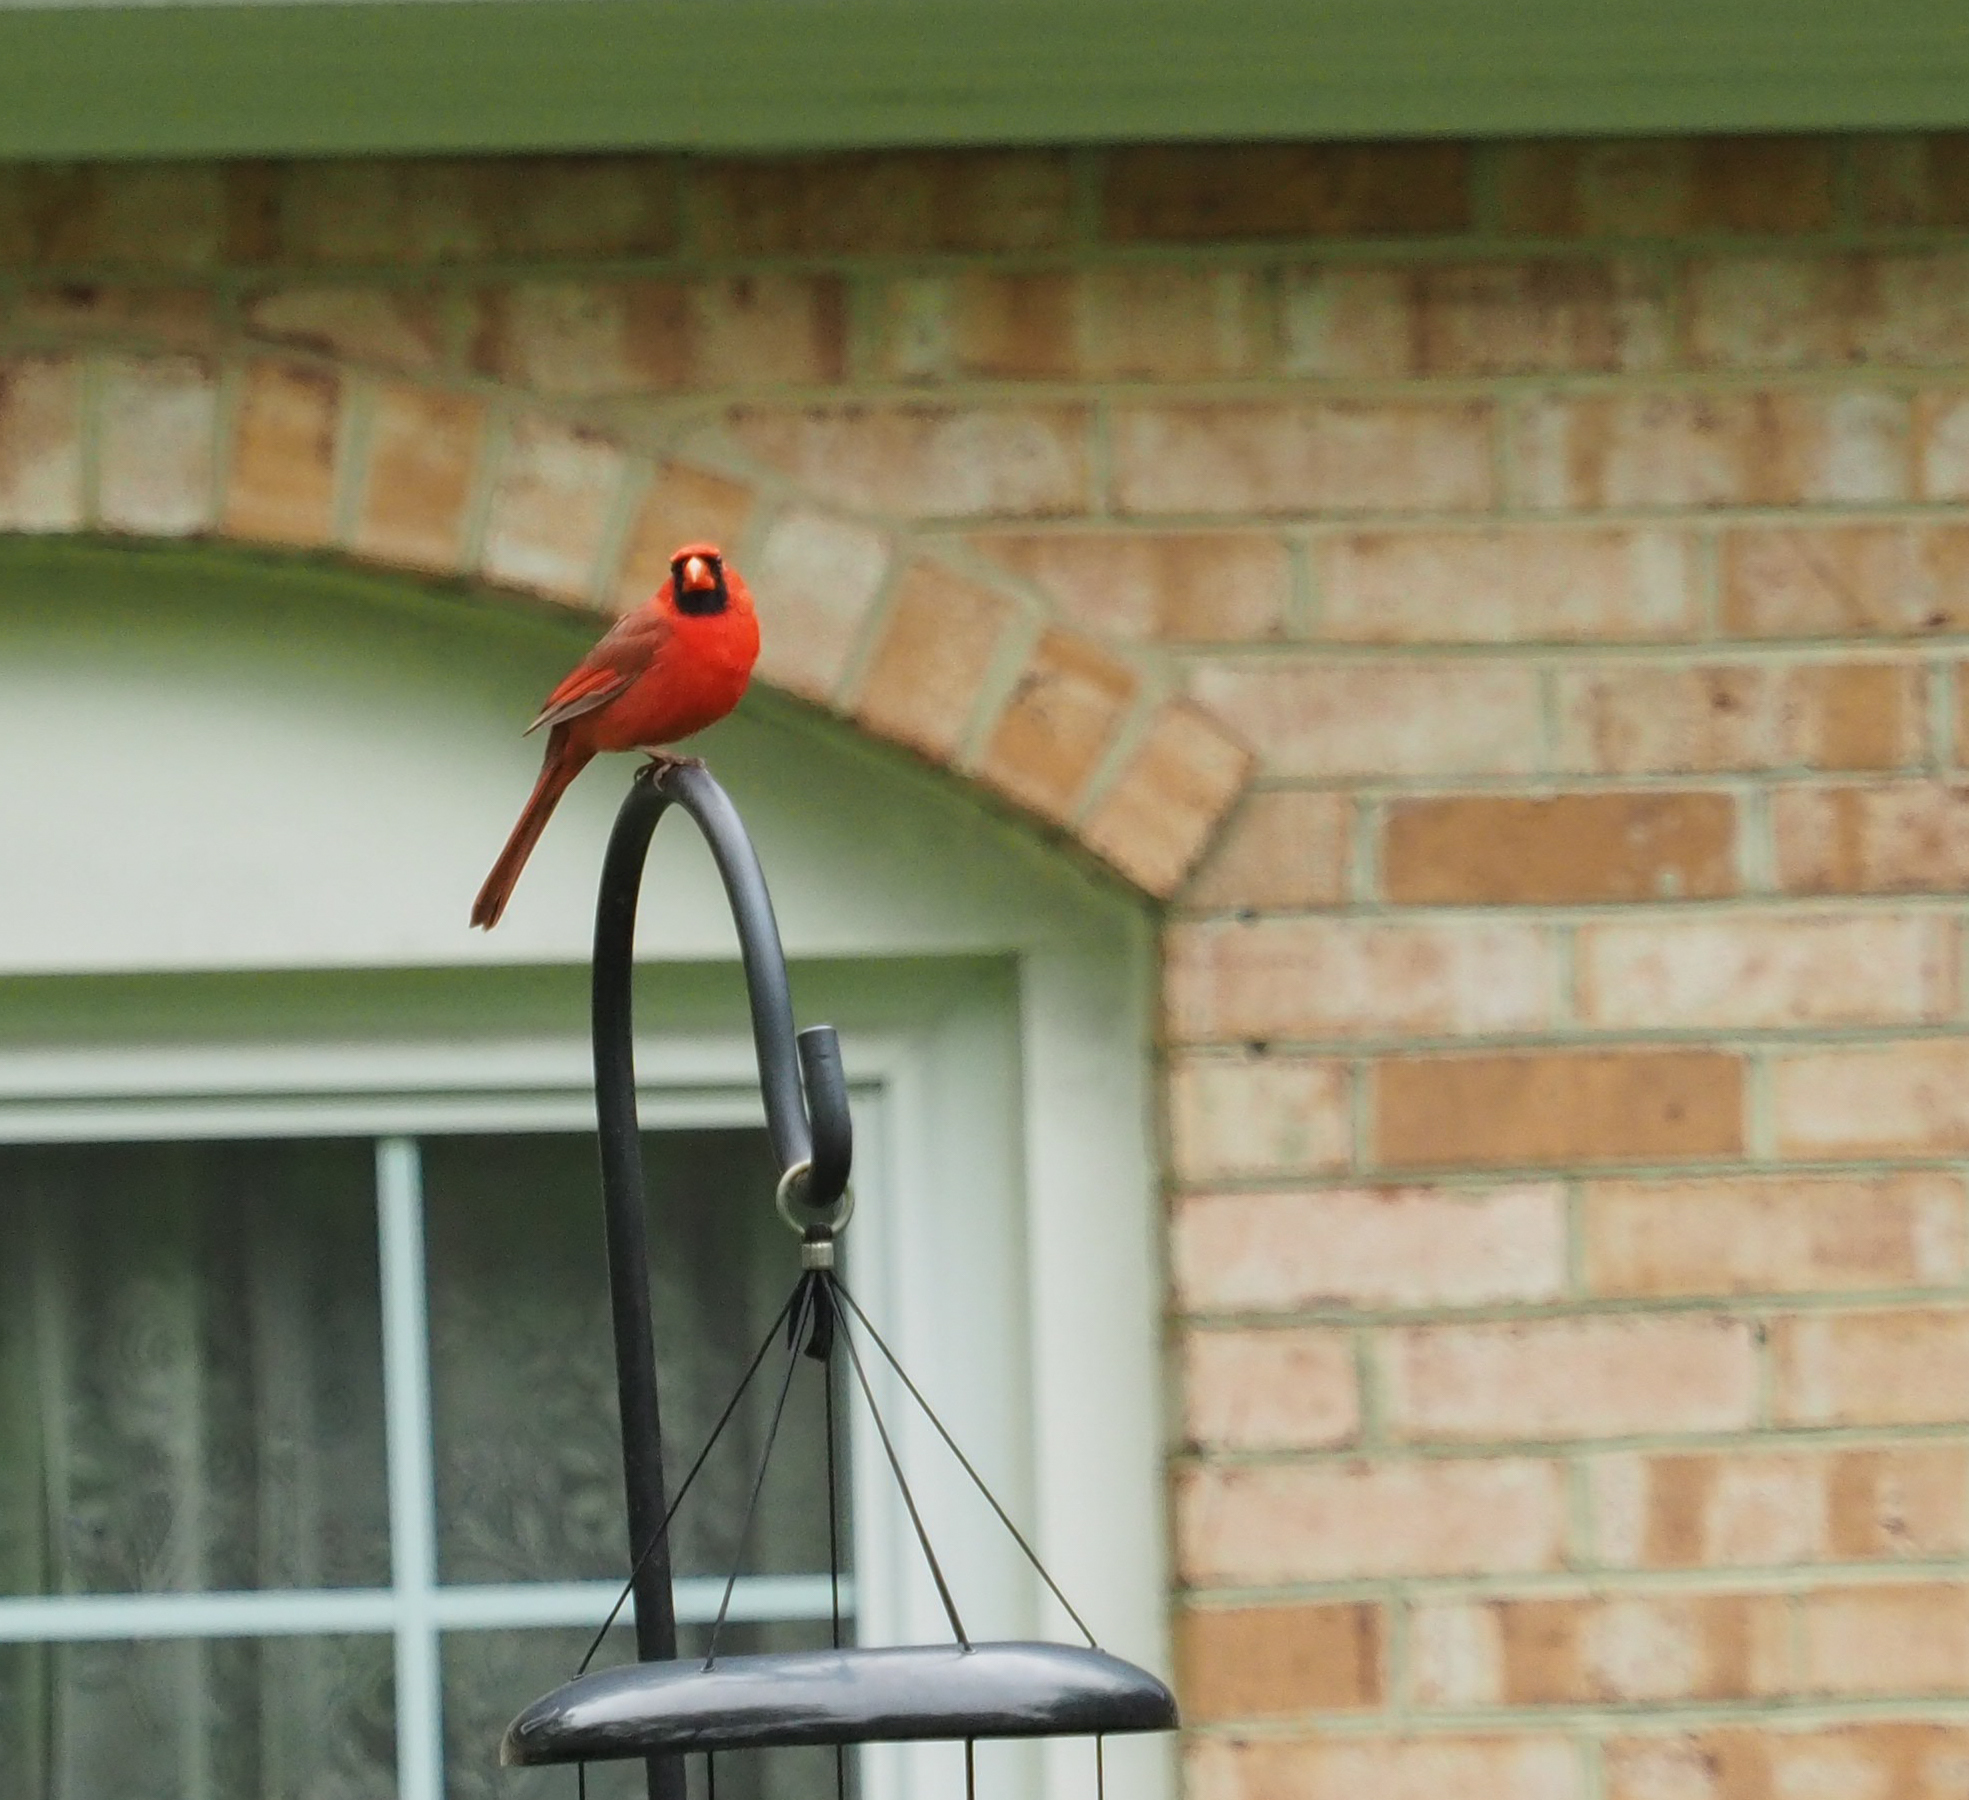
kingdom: Animalia
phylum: Chordata
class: Aves
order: Passeriformes
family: Cardinalidae
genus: Cardinalis
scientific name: Cardinalis cardinalis
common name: Northern cardinal
